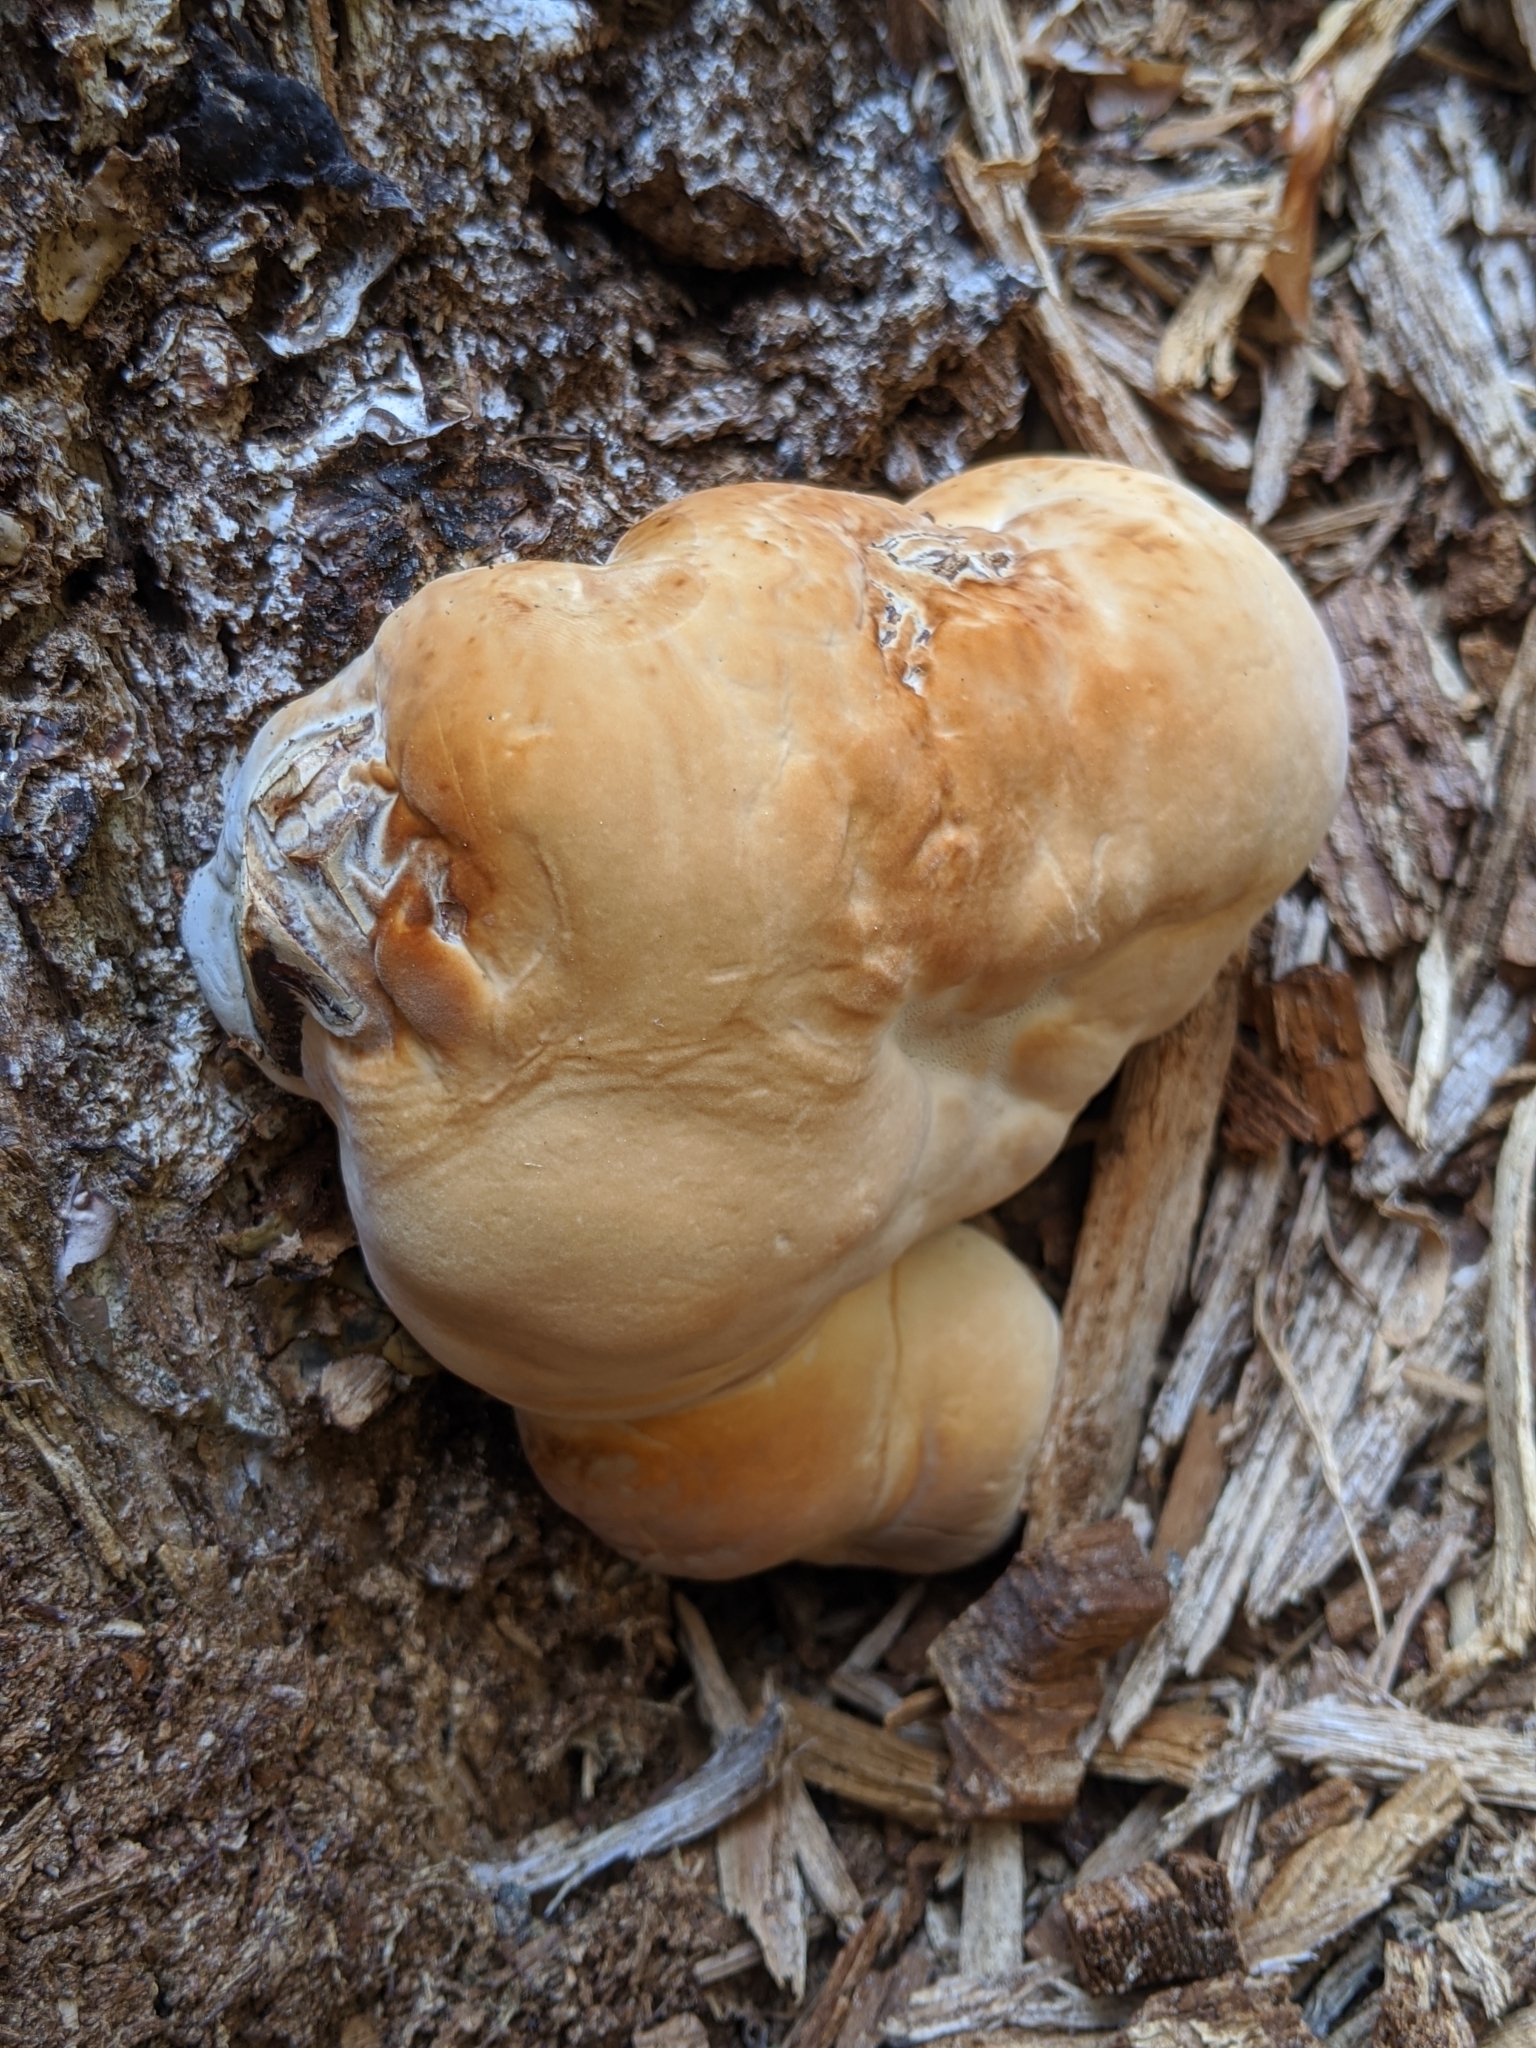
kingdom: Fungi
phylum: Basidiomycota
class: Agaricomycetes
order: Polyporales
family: Polyporaceae
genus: Ganoderma
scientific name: Ganoderma oregonense
